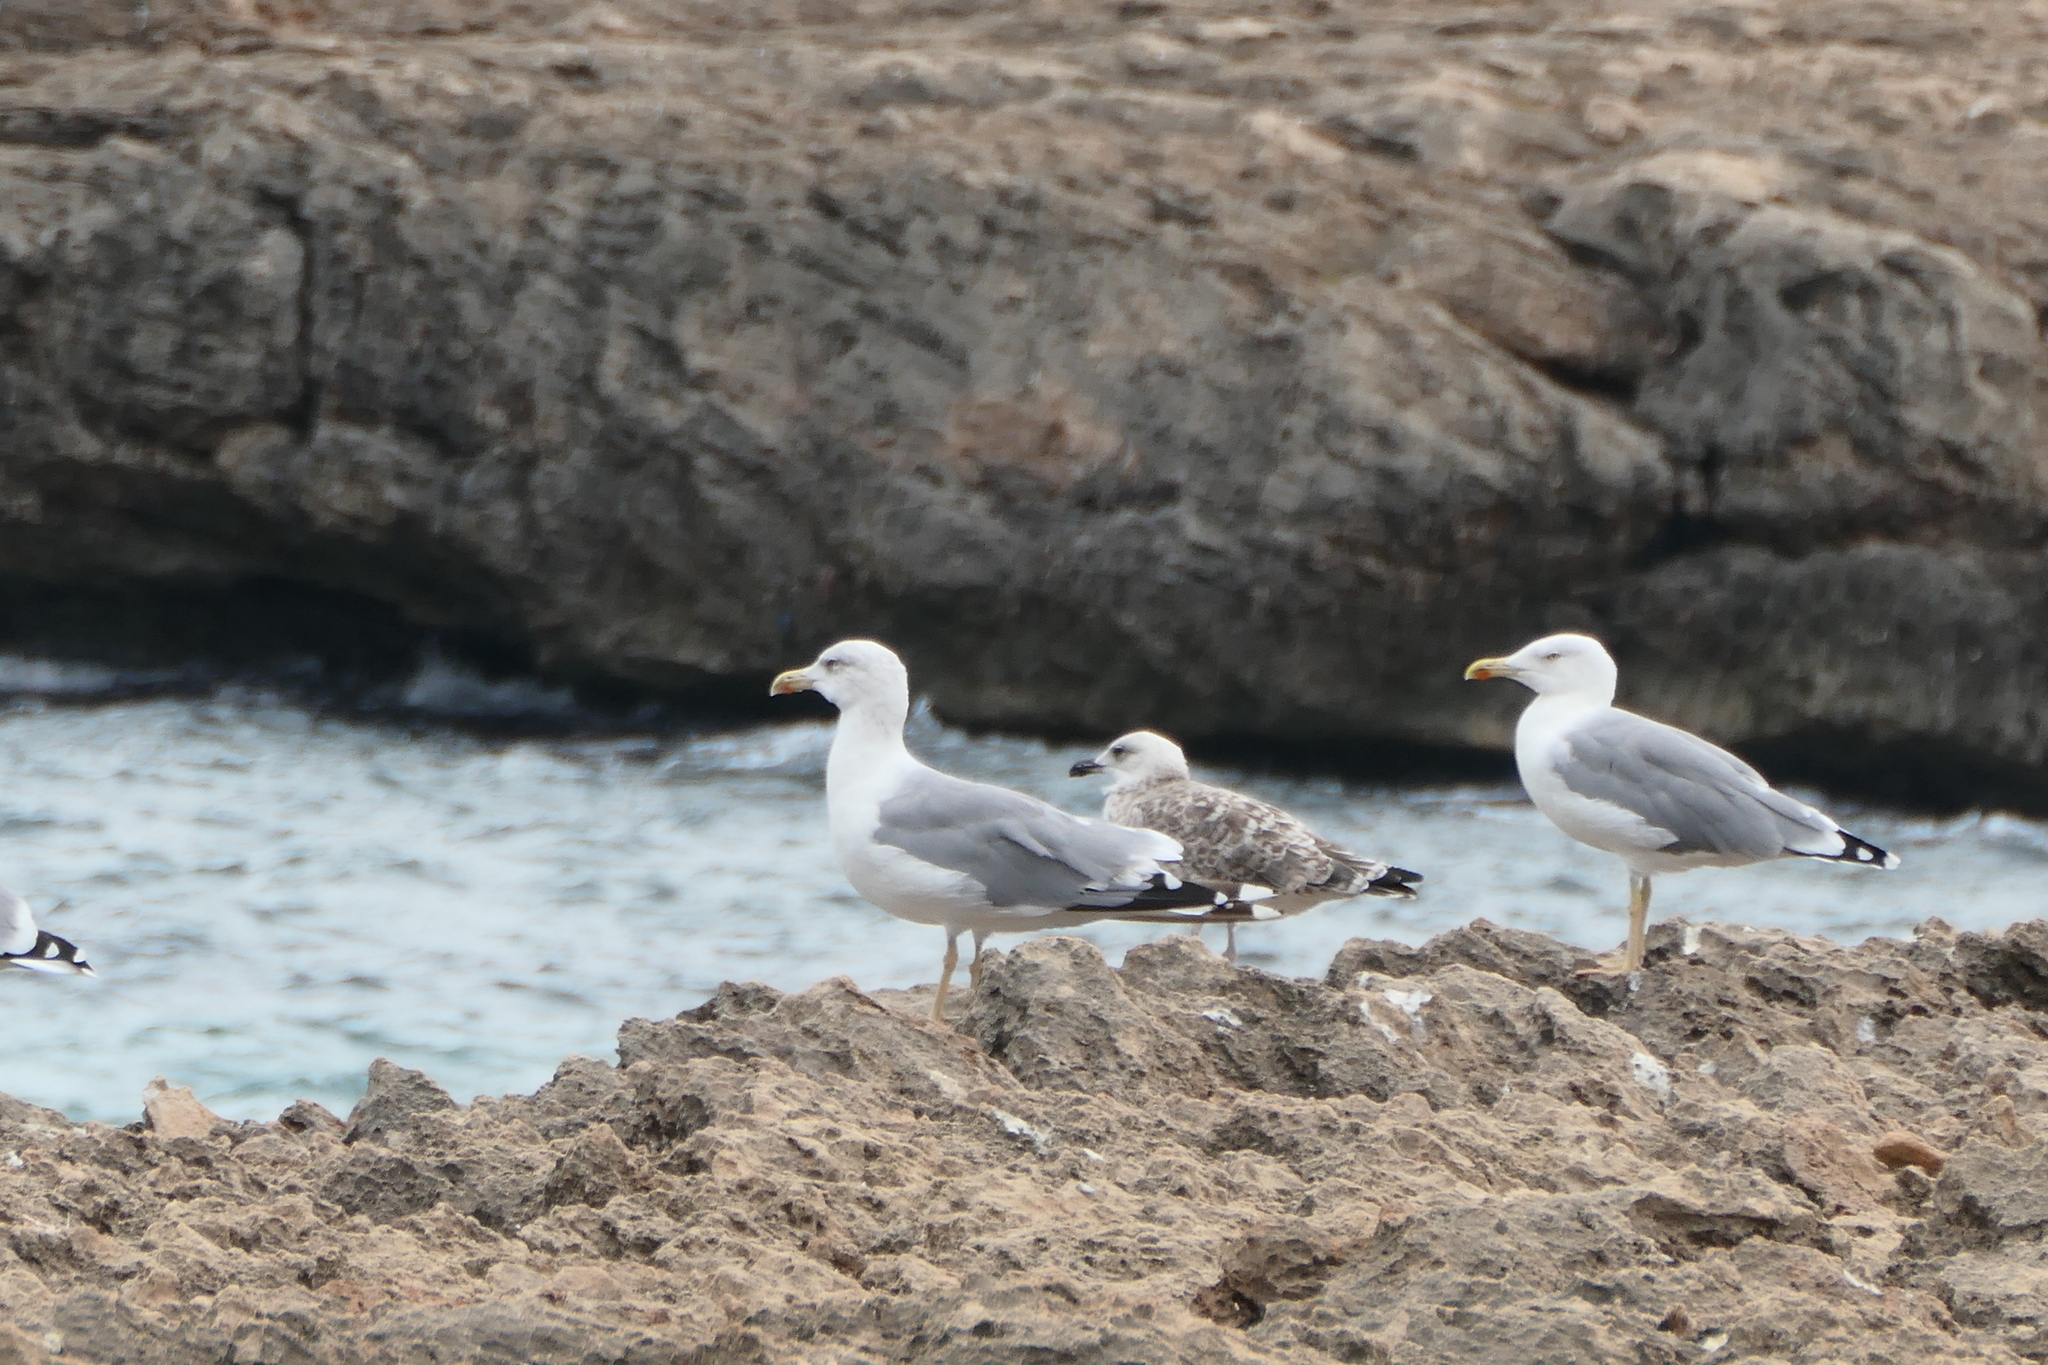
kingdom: Animalia
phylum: Chordata
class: Aves
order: Charadriiformes
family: Laridae
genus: Larus
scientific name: Larus michahellis
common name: Yellow-legged gull
